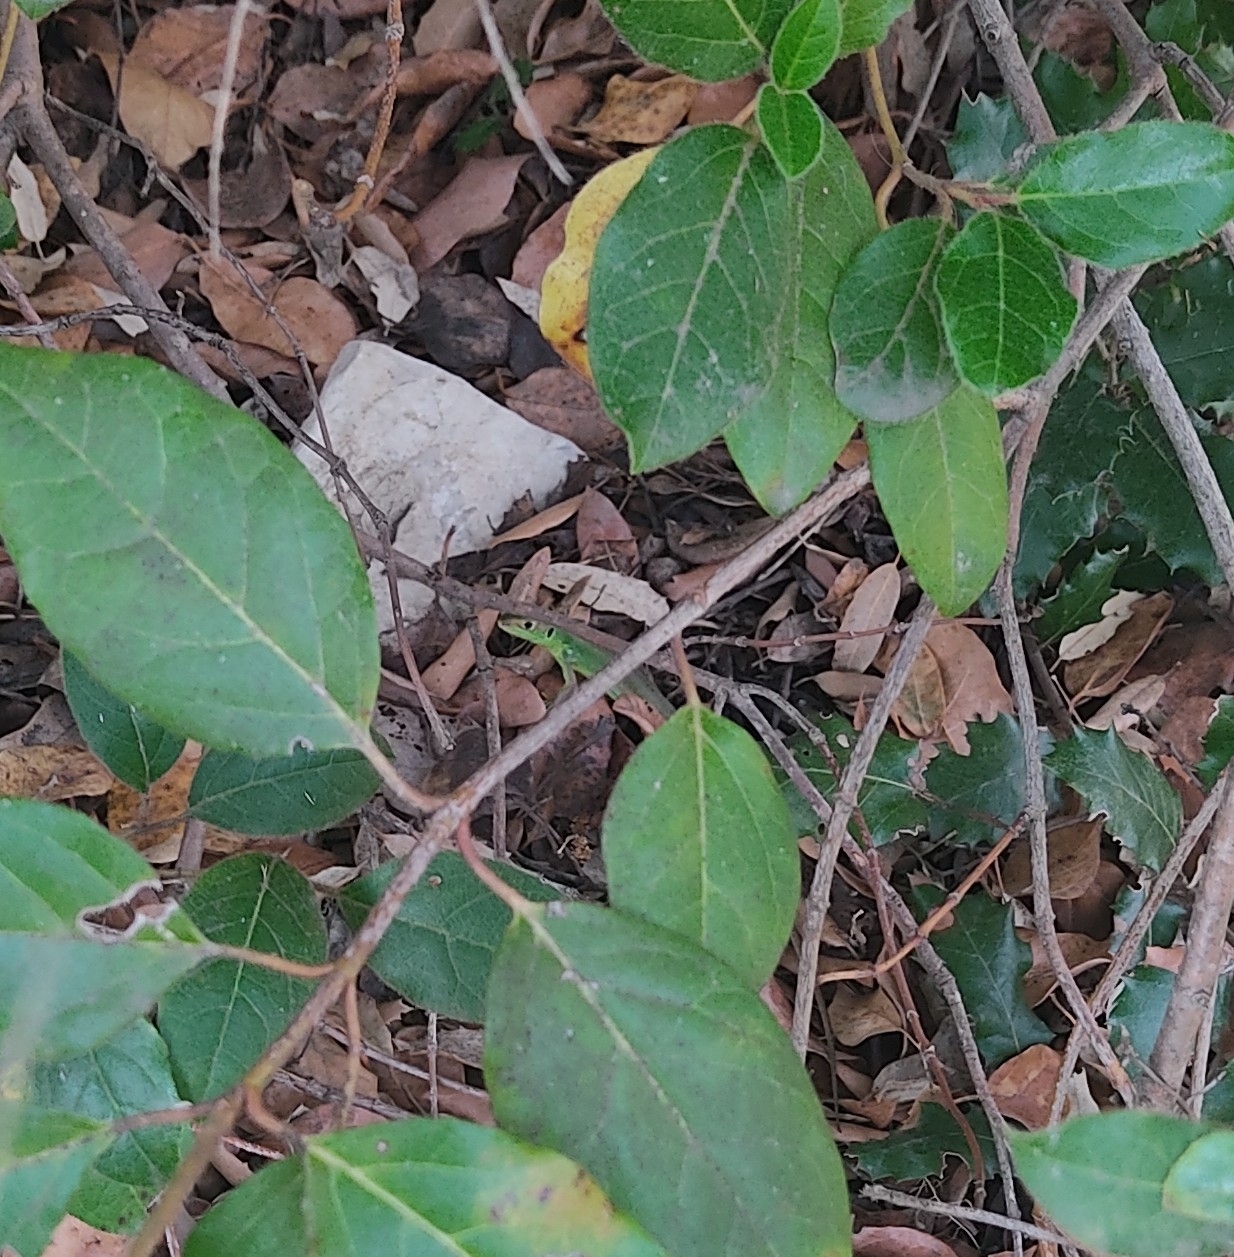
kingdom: Animalia
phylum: Chordata
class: Squamata
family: Lacertidae
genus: Lacerta
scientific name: Lacerta bilineata
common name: Western green lizard
